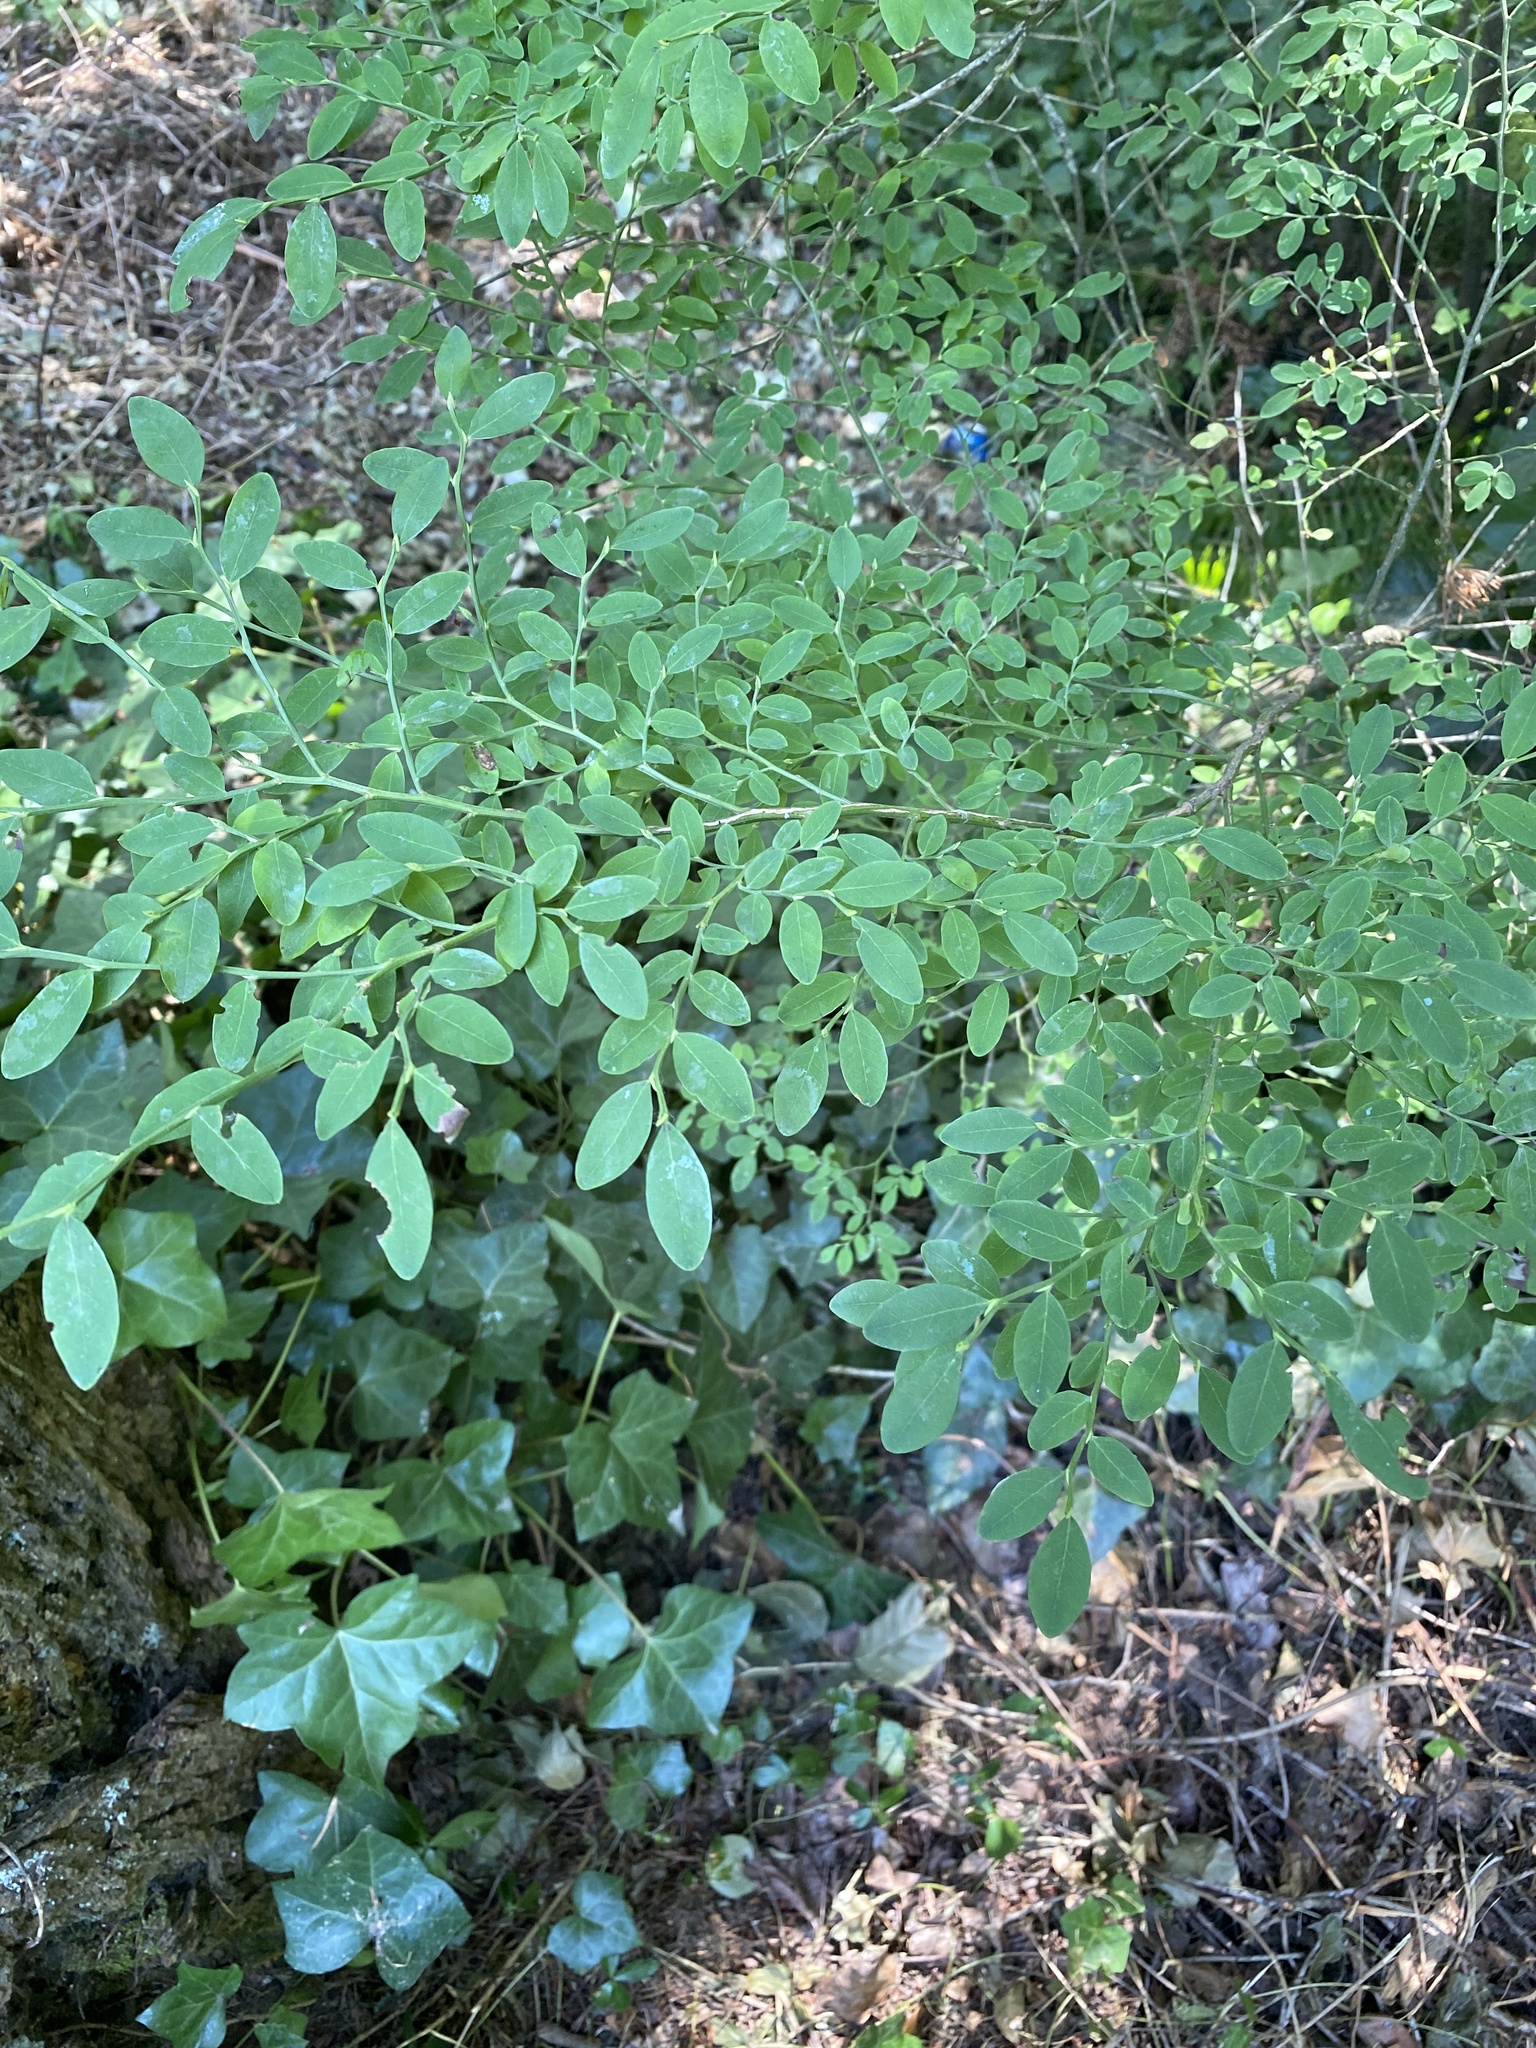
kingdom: Plantae
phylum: Tracheophyta
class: Magnoliopsida
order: Ericales
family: Ericaceae
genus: Vaccinium
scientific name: Vaccinium parvifolium
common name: Red-huckleberry
